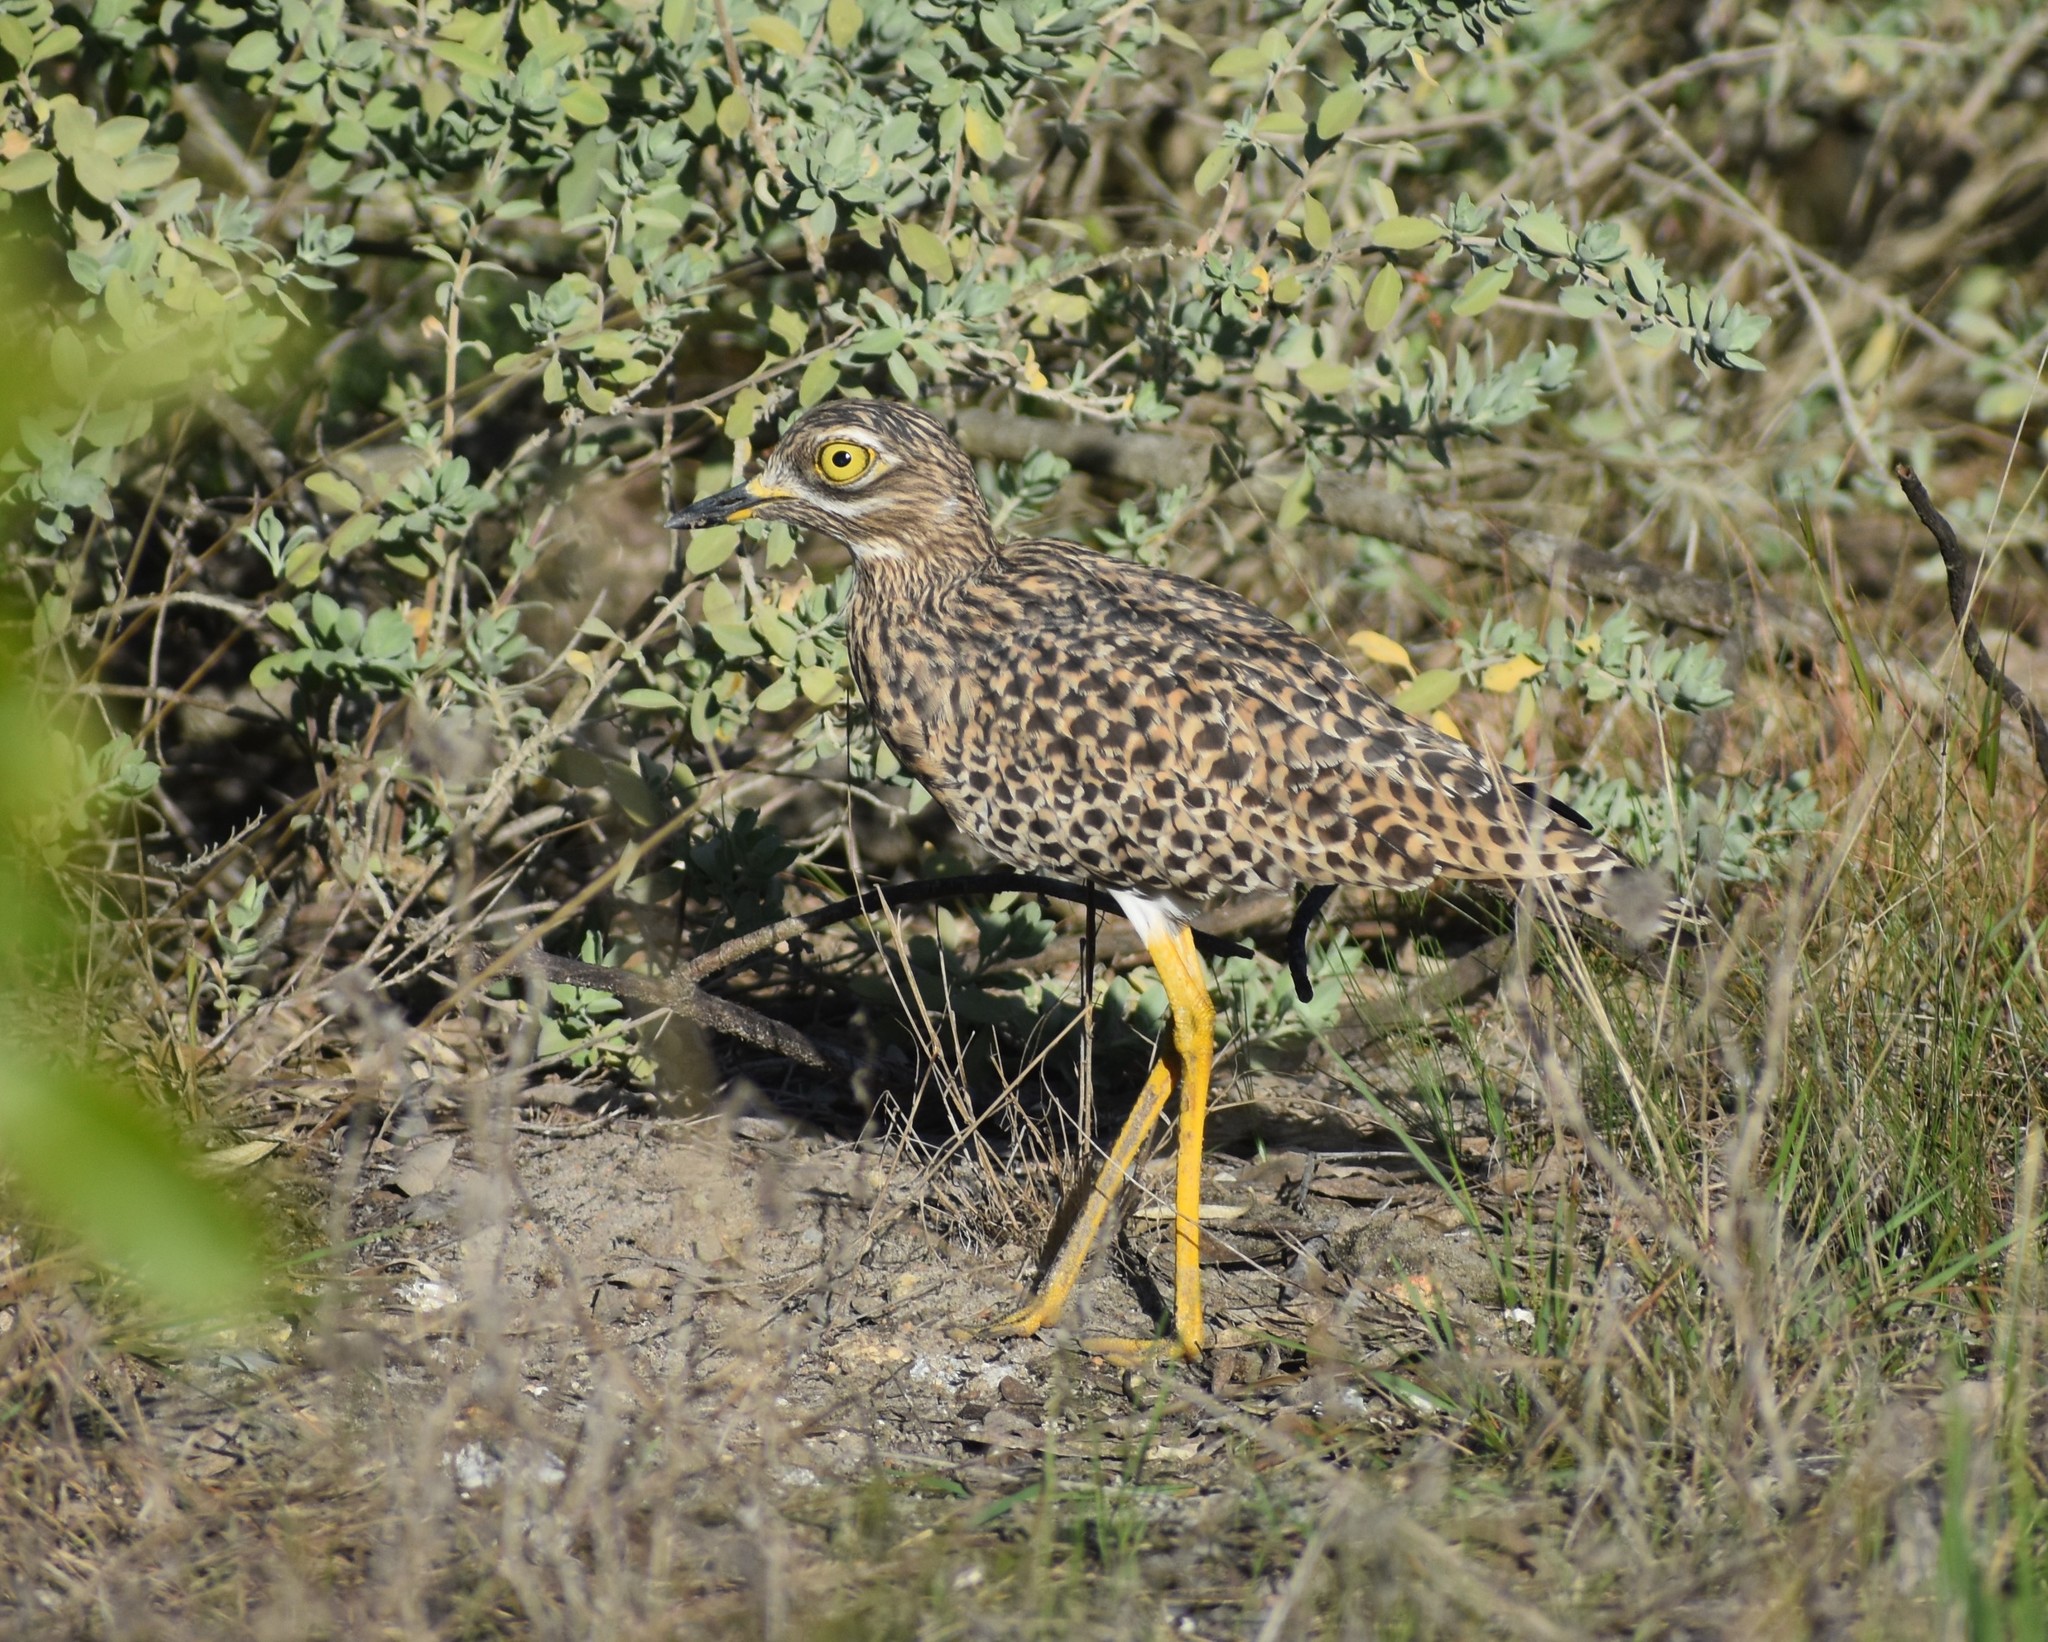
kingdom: Animalia
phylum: Chordata
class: Aves
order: Charadriiformes
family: Burhinidae
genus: Burhinus
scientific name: Burhinus capensis
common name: Spotted thick-knee
